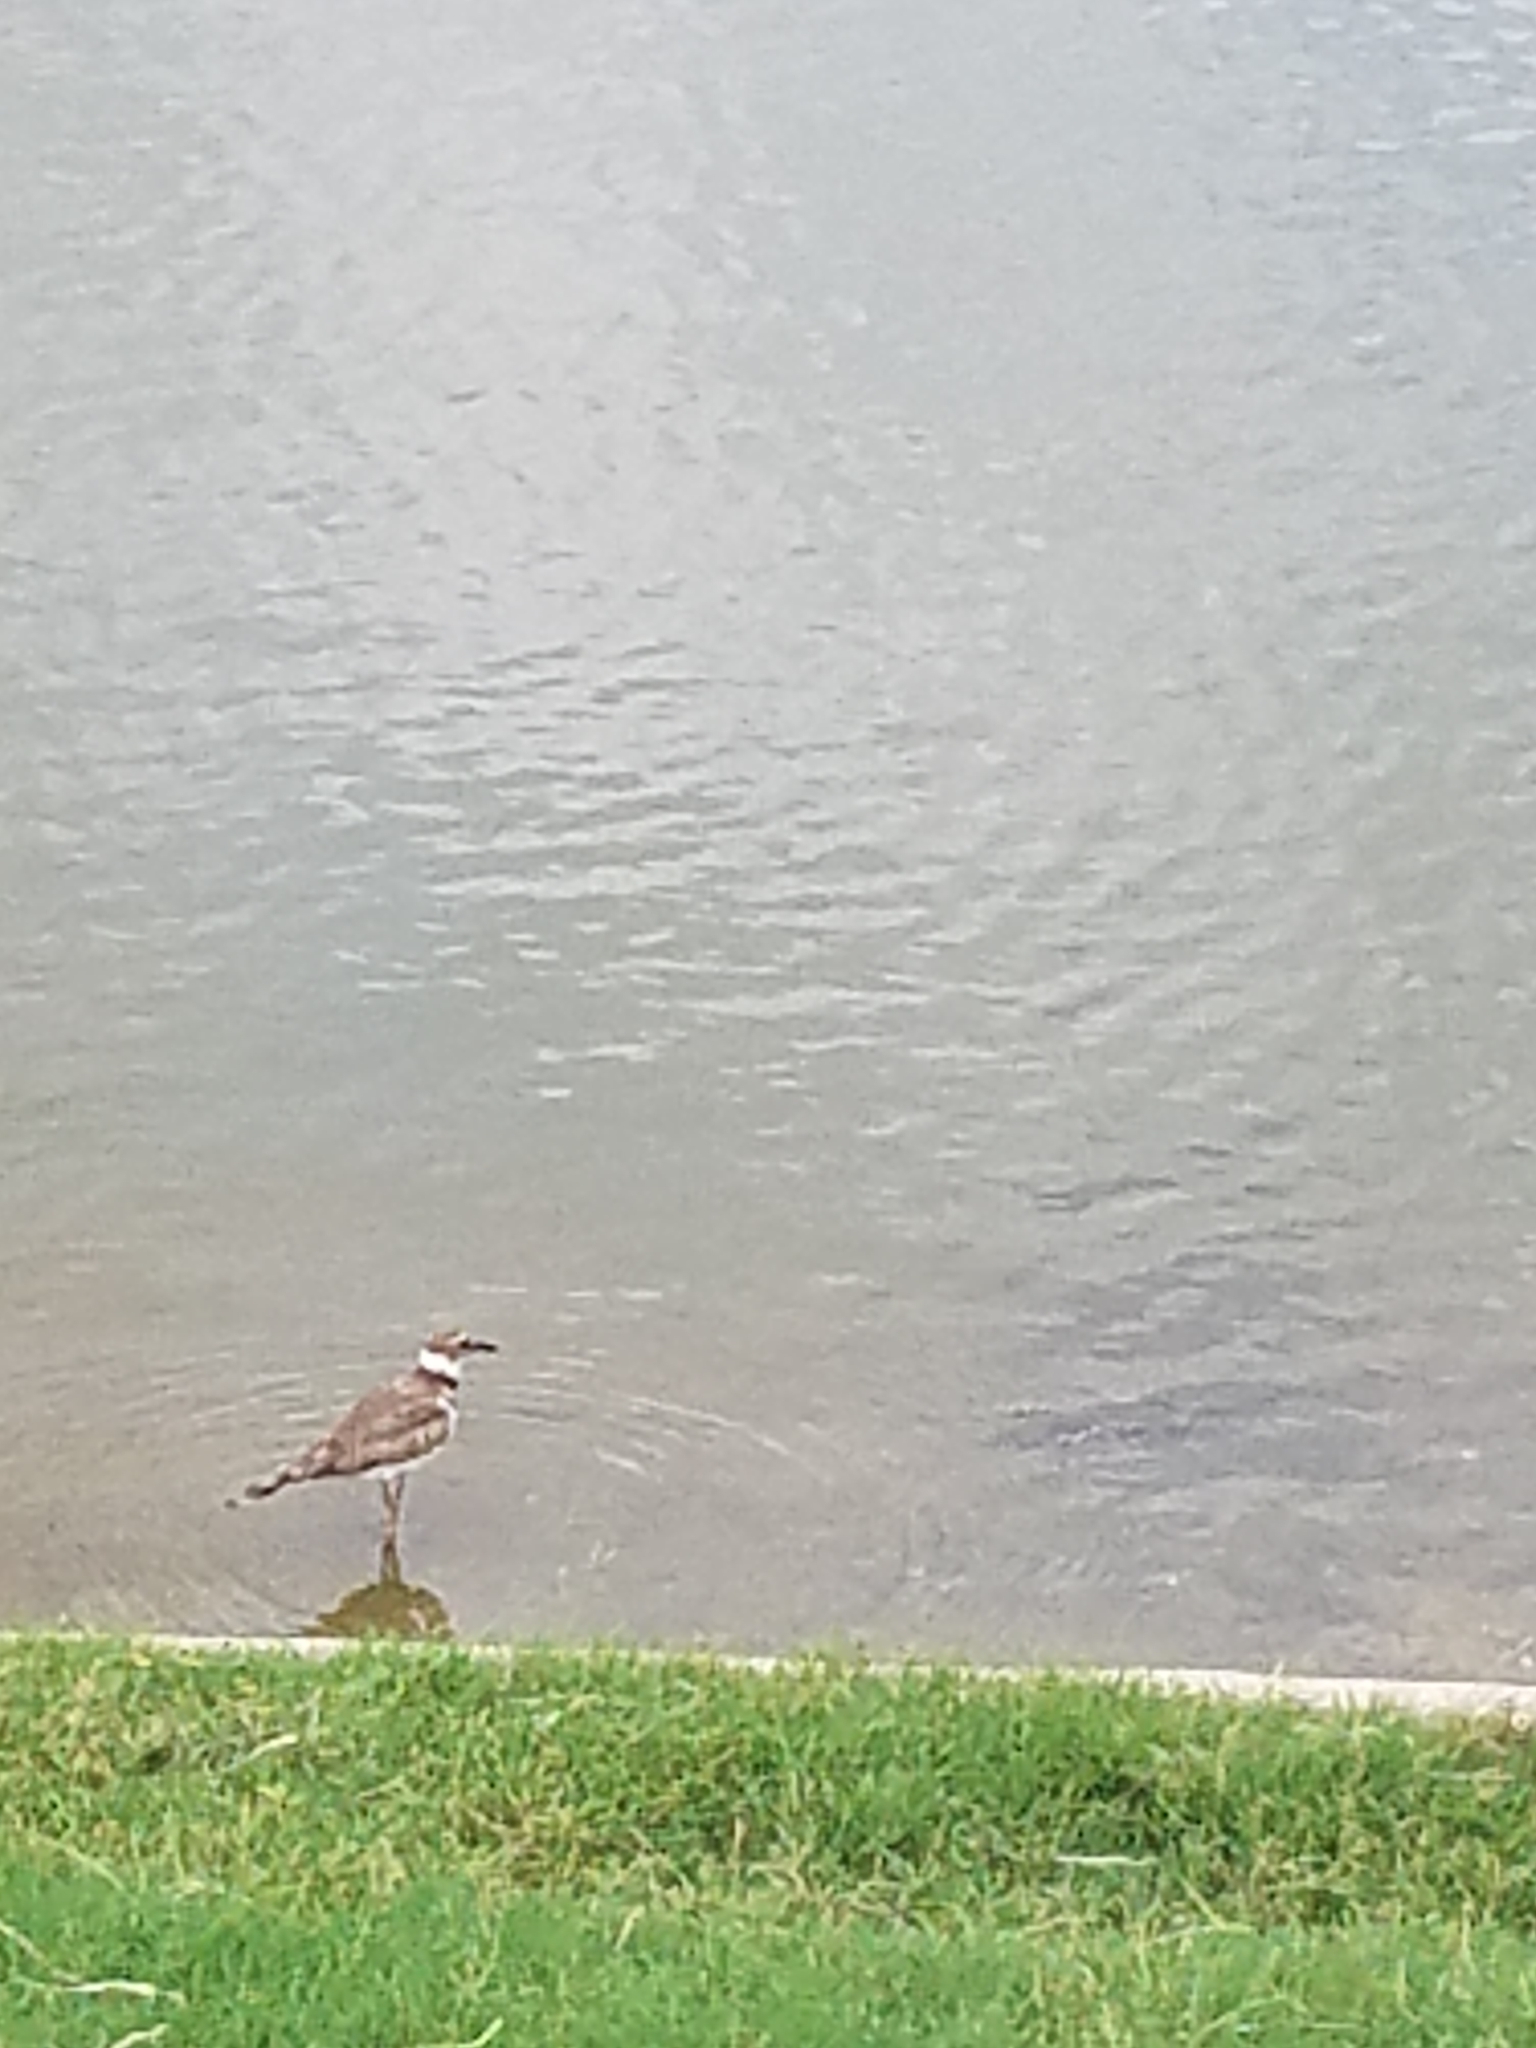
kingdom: Animalia
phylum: Chordata
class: Aves
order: Charadriiformes
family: Charadriidae
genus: Charadrius
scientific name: Charadrius vociferus
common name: Killdeer
